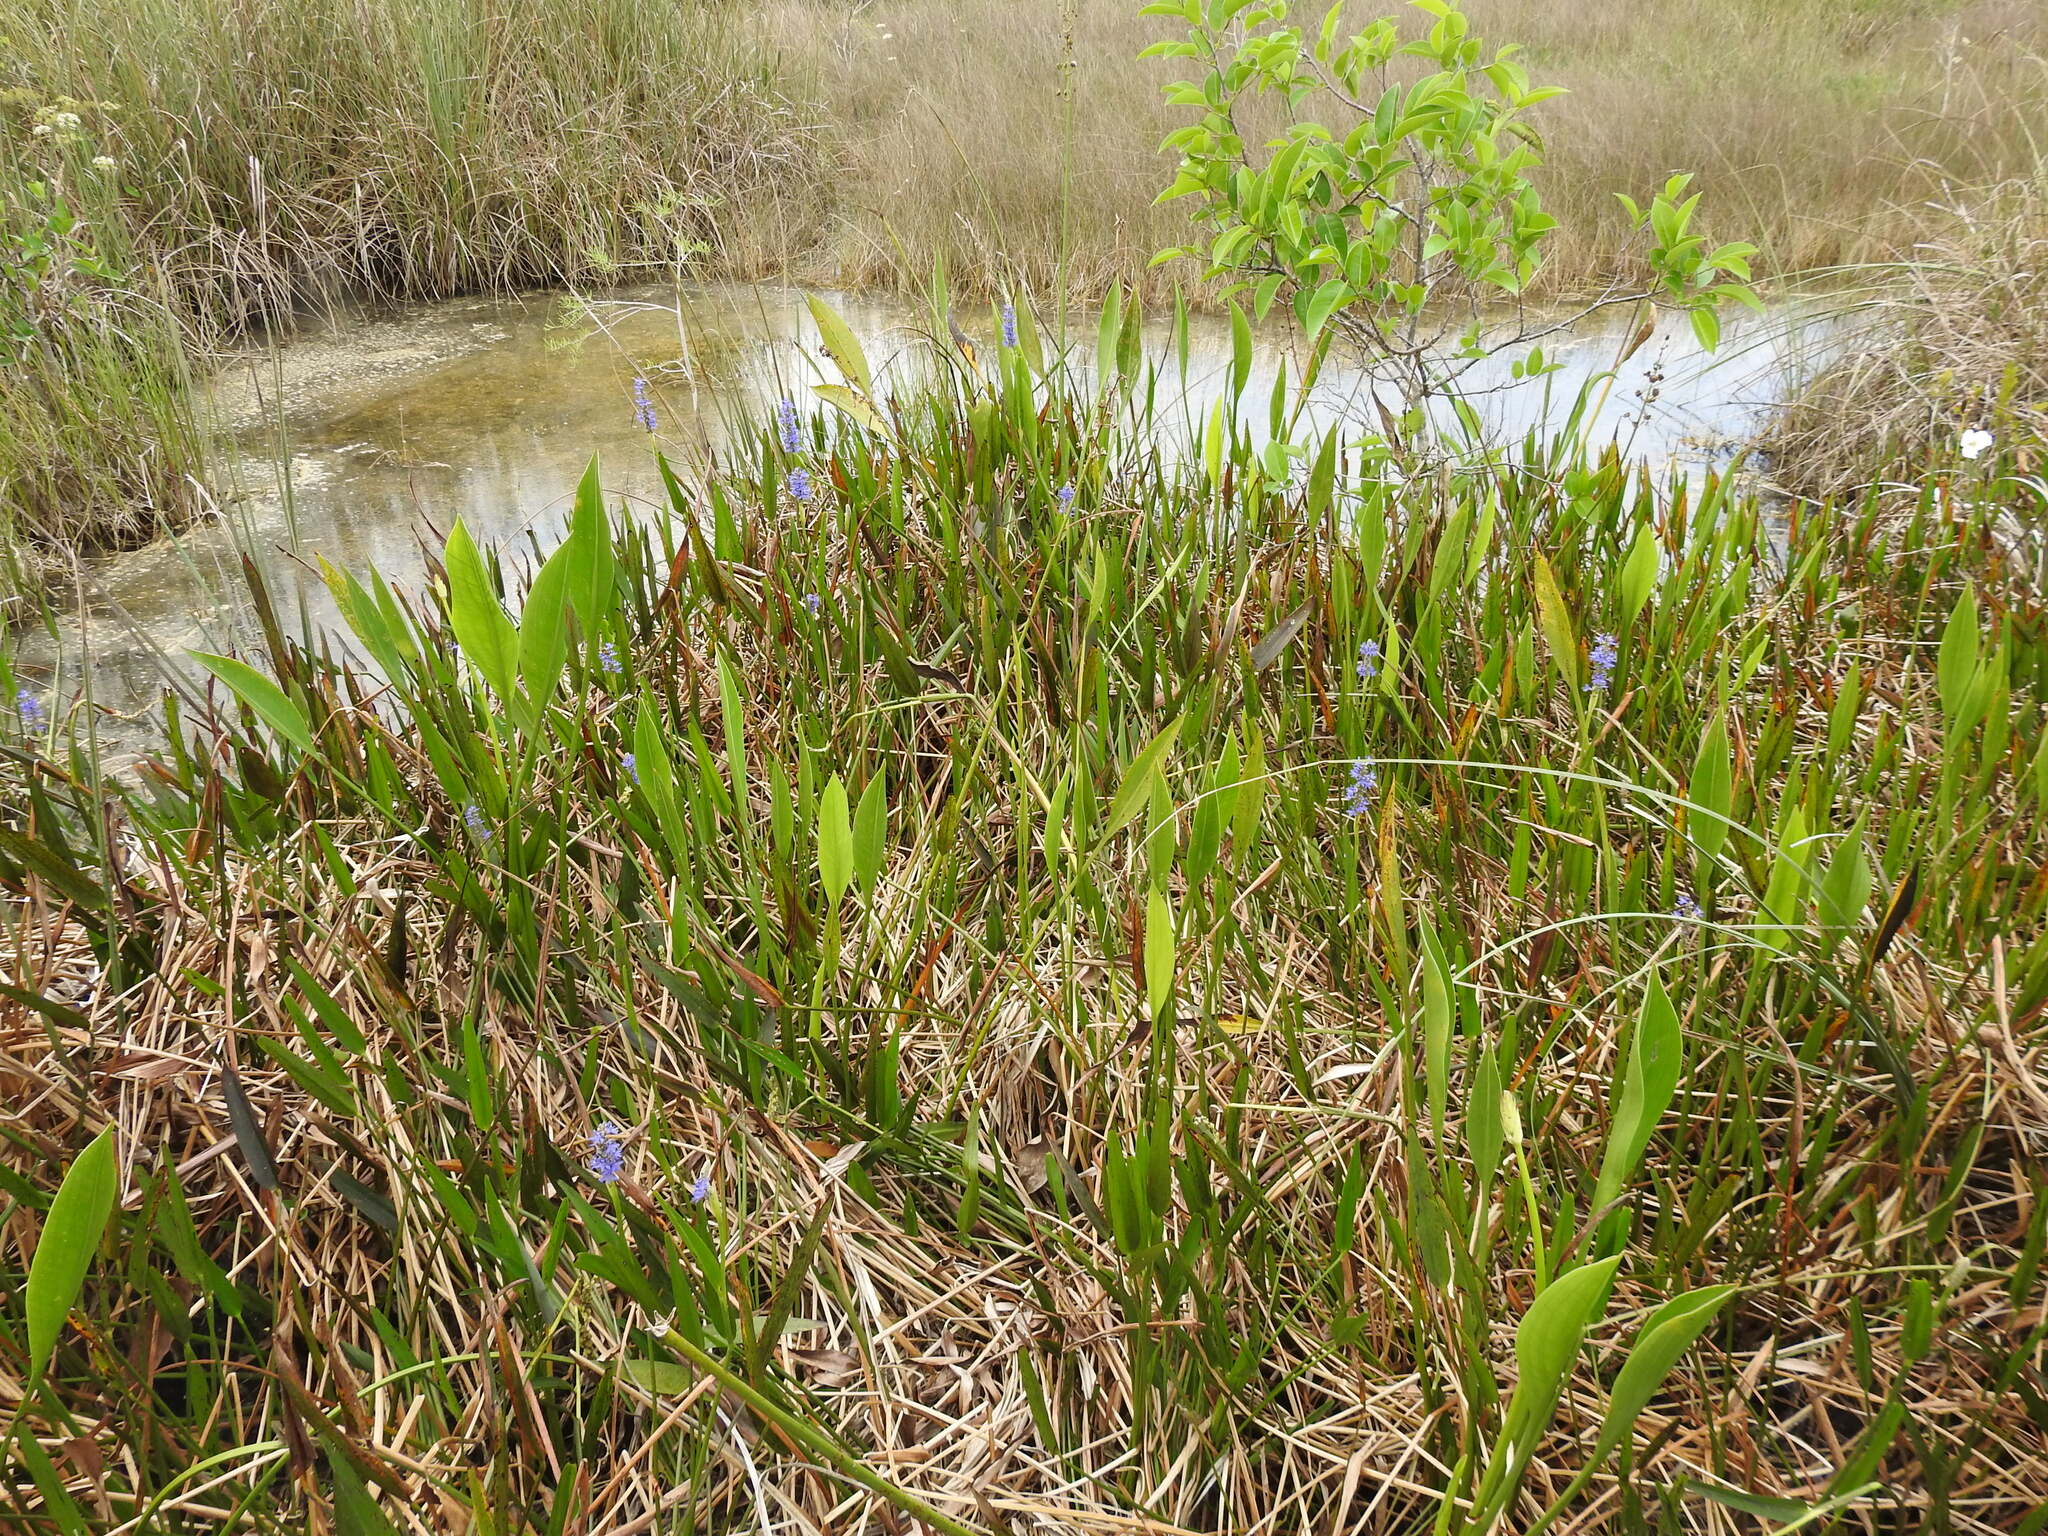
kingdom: Plantae
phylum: Tracheophyta
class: Liliopsida
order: Commelinales
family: Pontederiaceae
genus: Pontederia
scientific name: Pontederia cordata
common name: Pickerelweed
